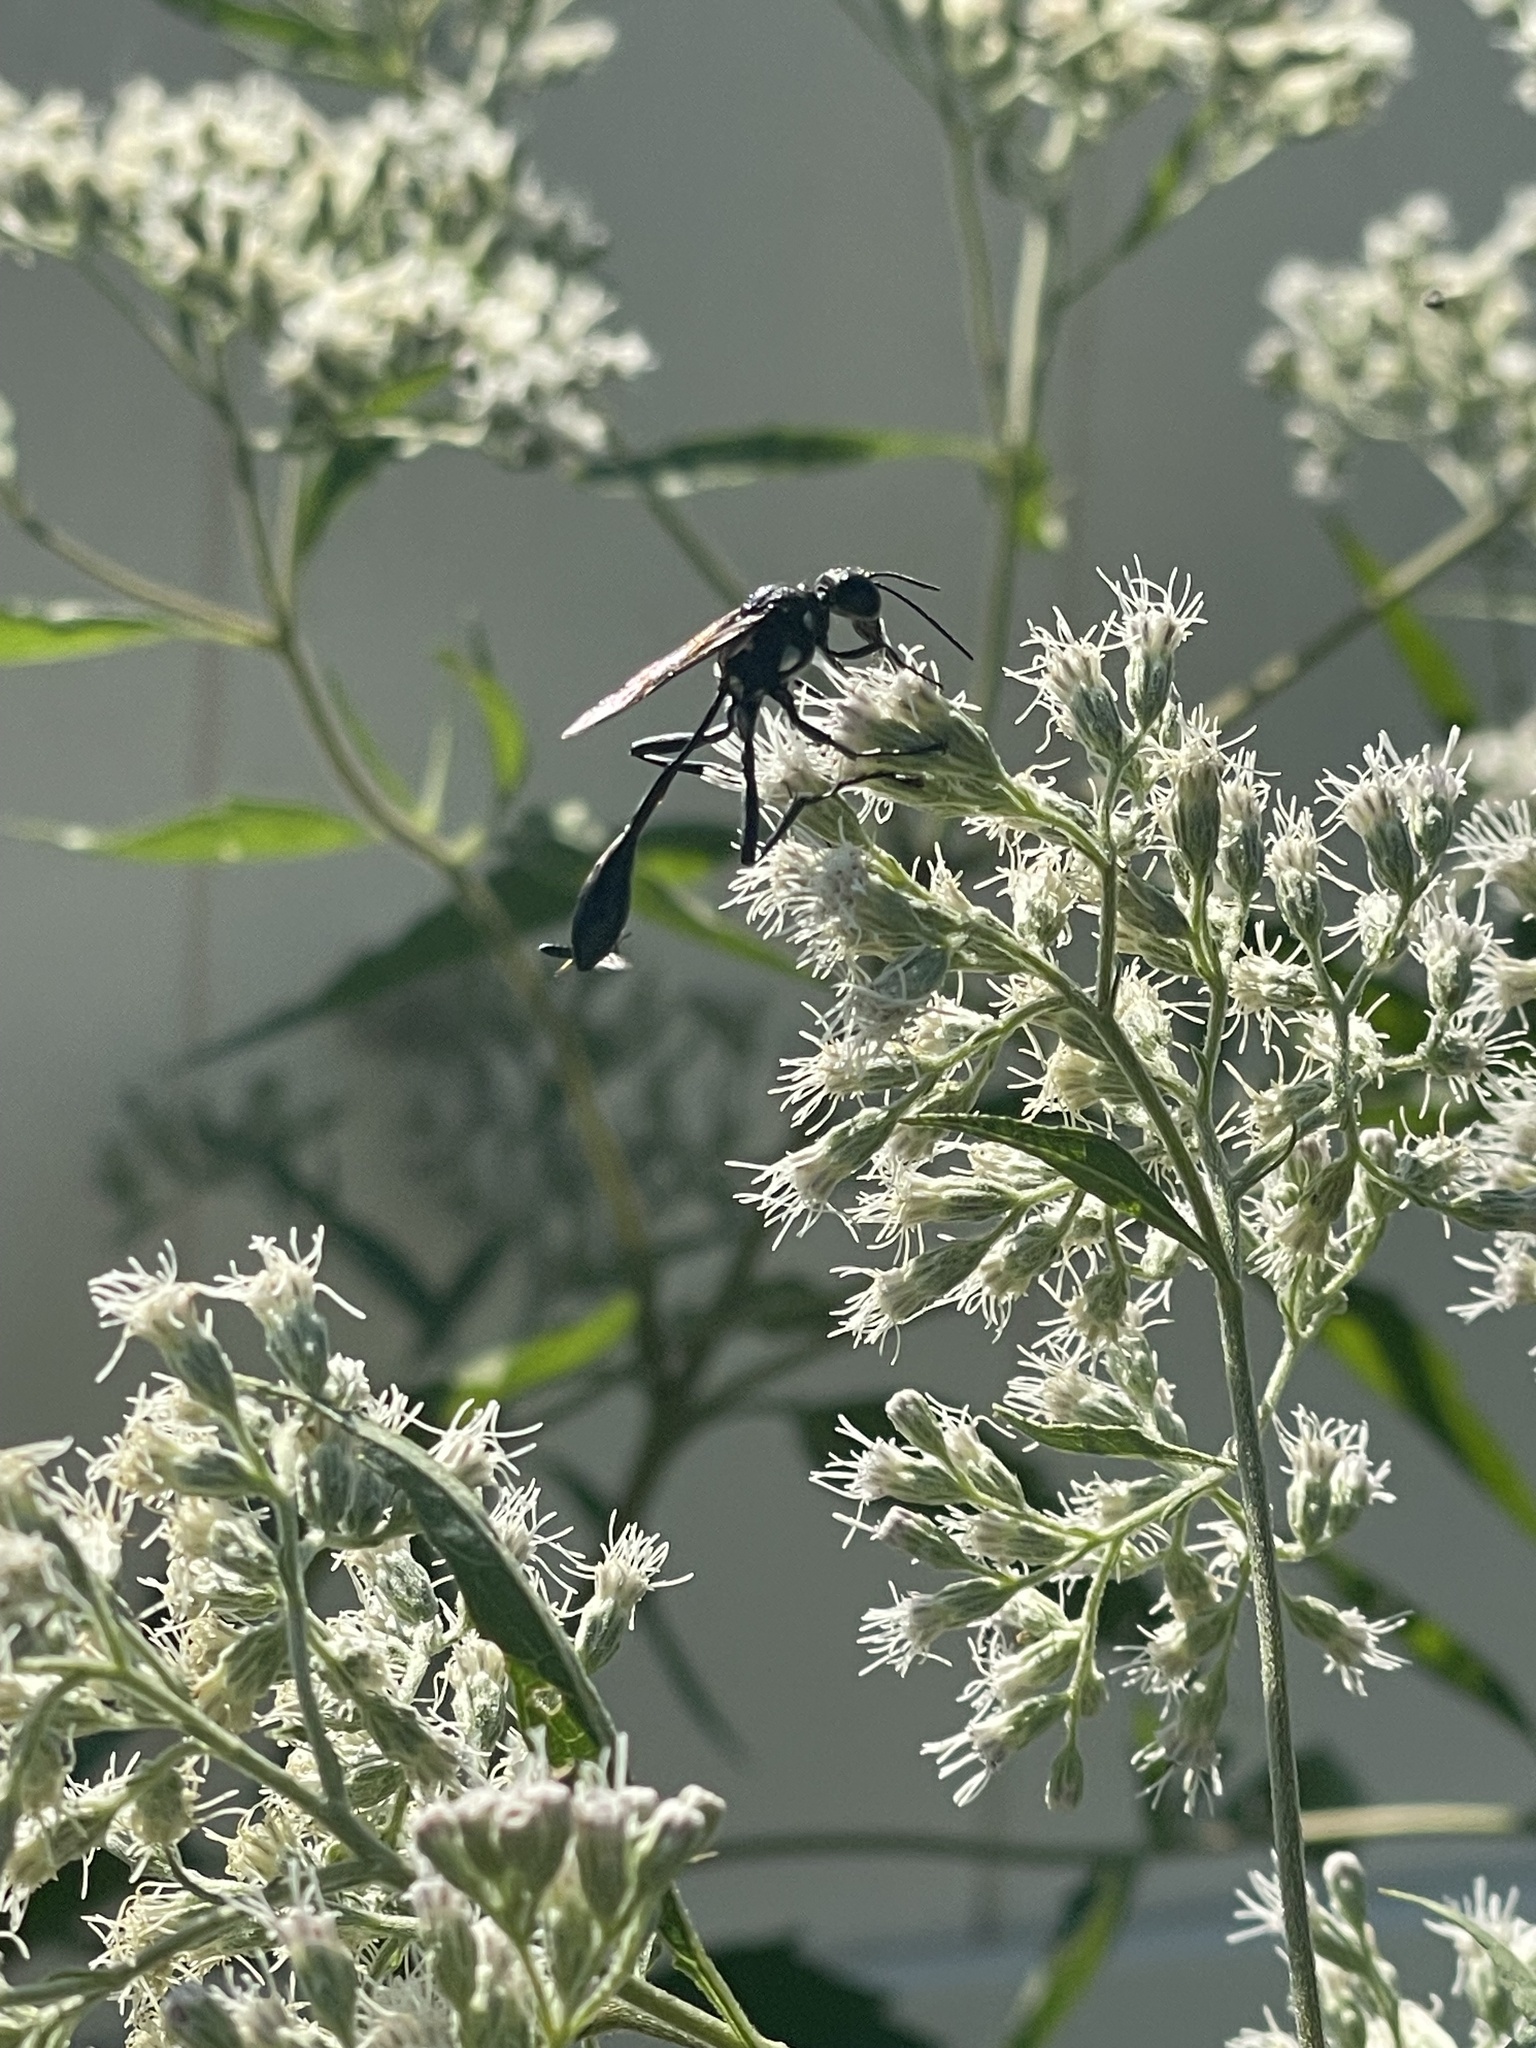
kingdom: Animalia
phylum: Arthropoda
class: Insecta
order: Hymenoptera
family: Sphecidae
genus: Eremnophila
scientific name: Eremnophila aureonotata
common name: Gold-marked thread-waisted wasp
